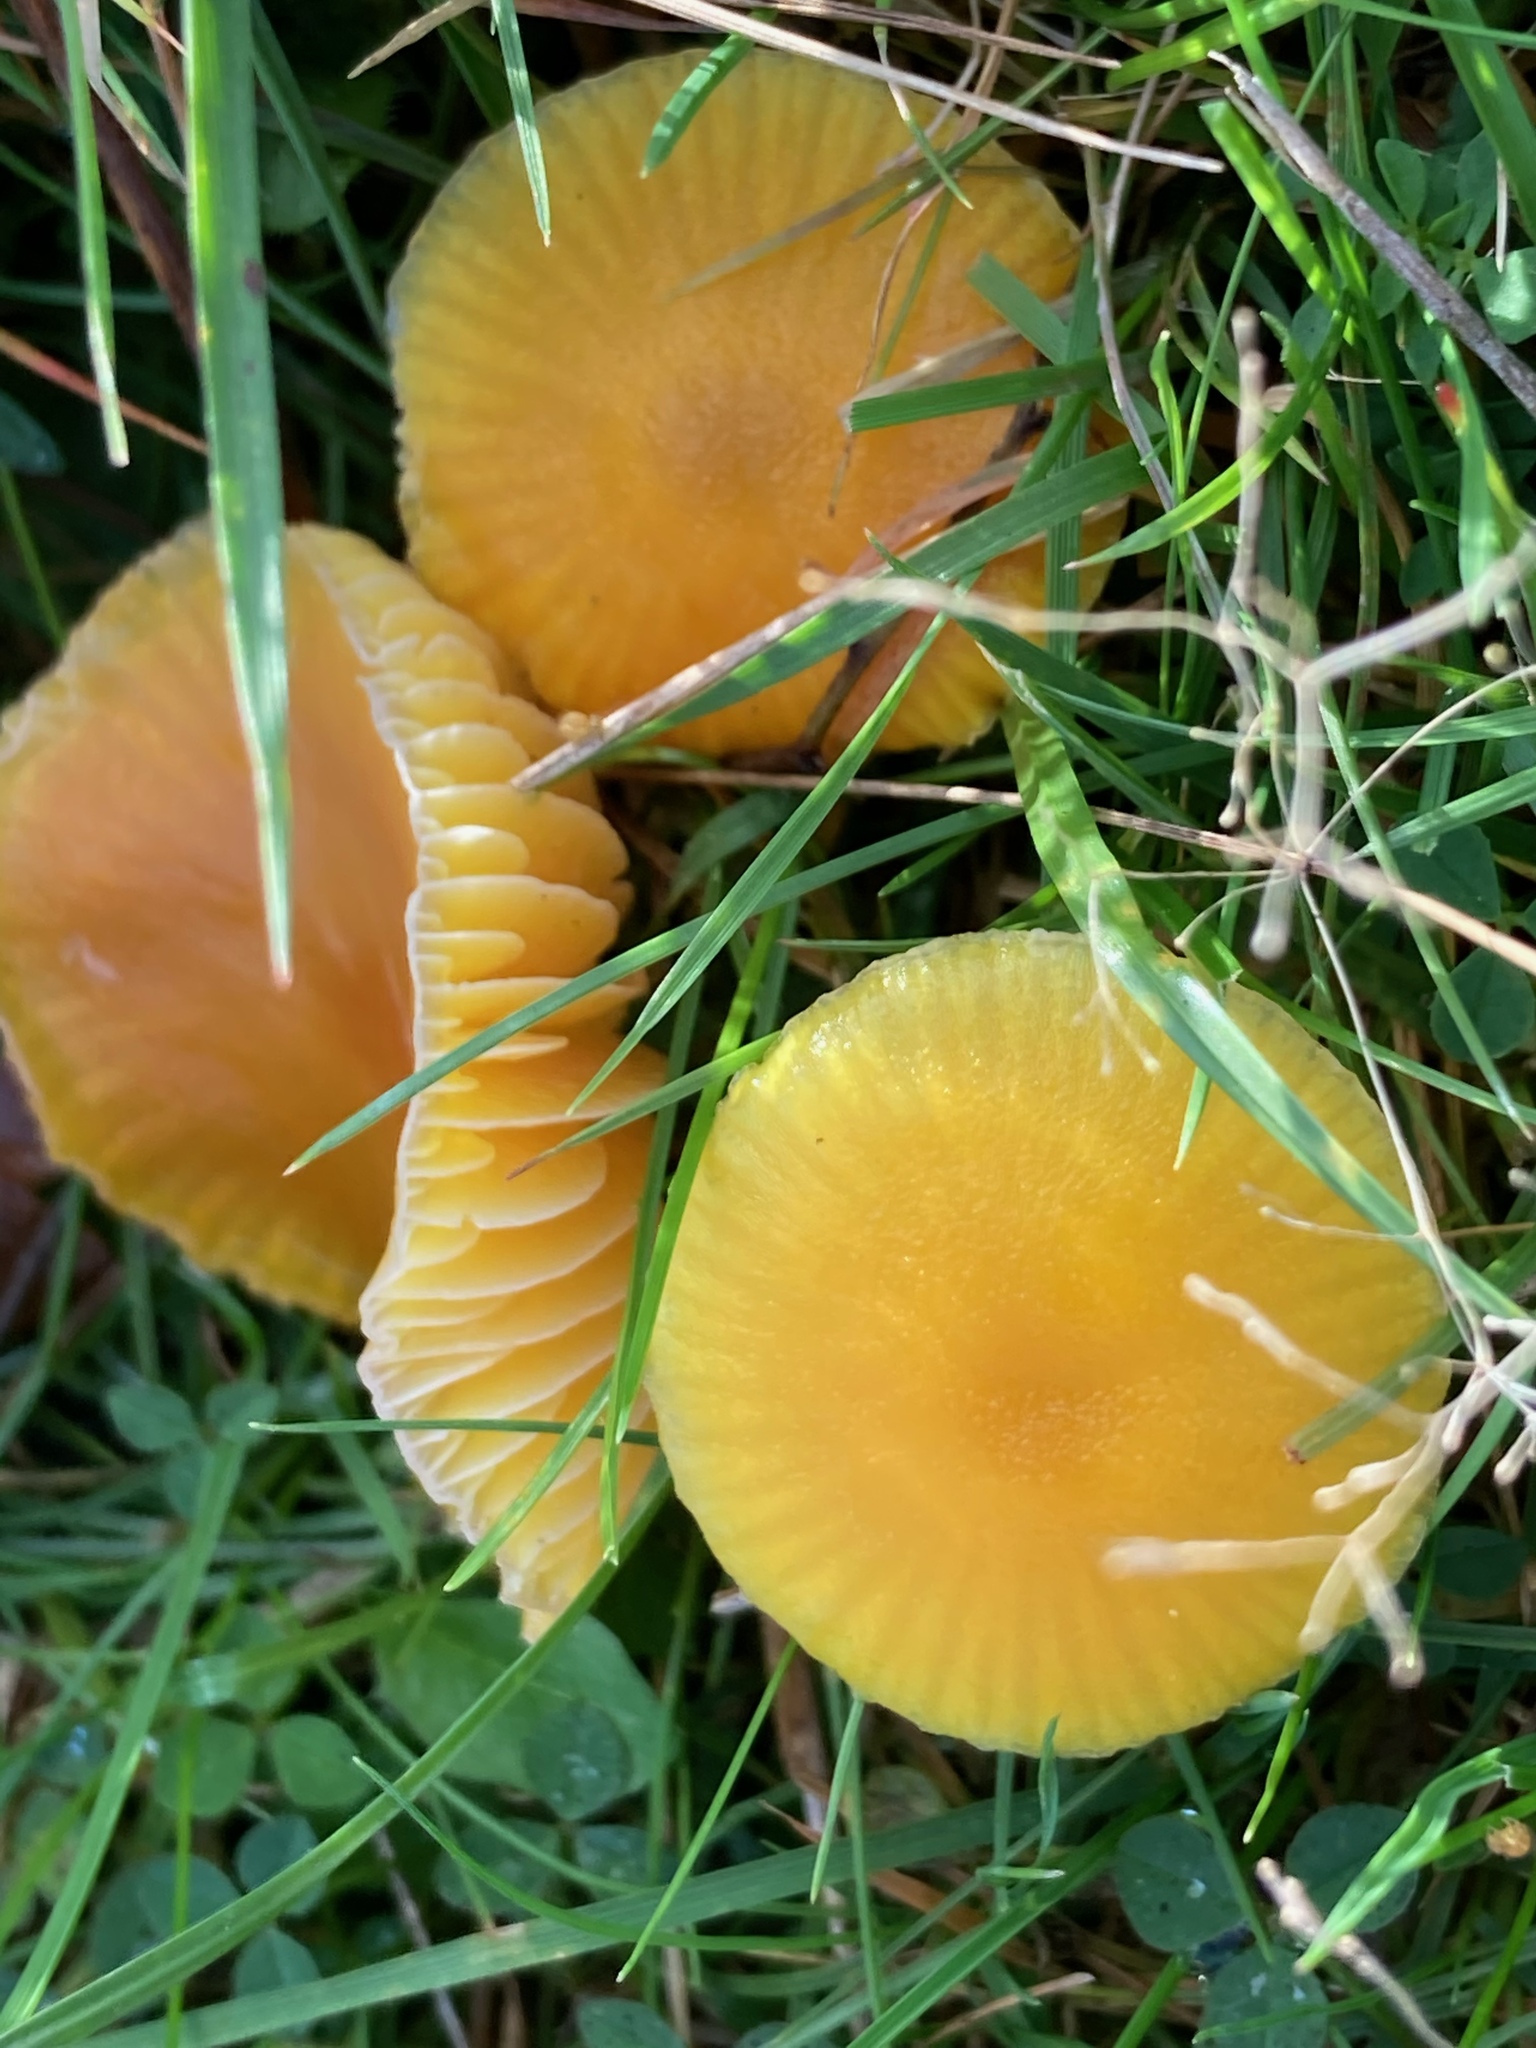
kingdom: Fungi
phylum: Basidiomycota
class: Agaricomycetes
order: Agaricales
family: Hygrophoraceae
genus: Hygrocybe
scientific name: Hygrocybe ceracea
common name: Butter waxcap
